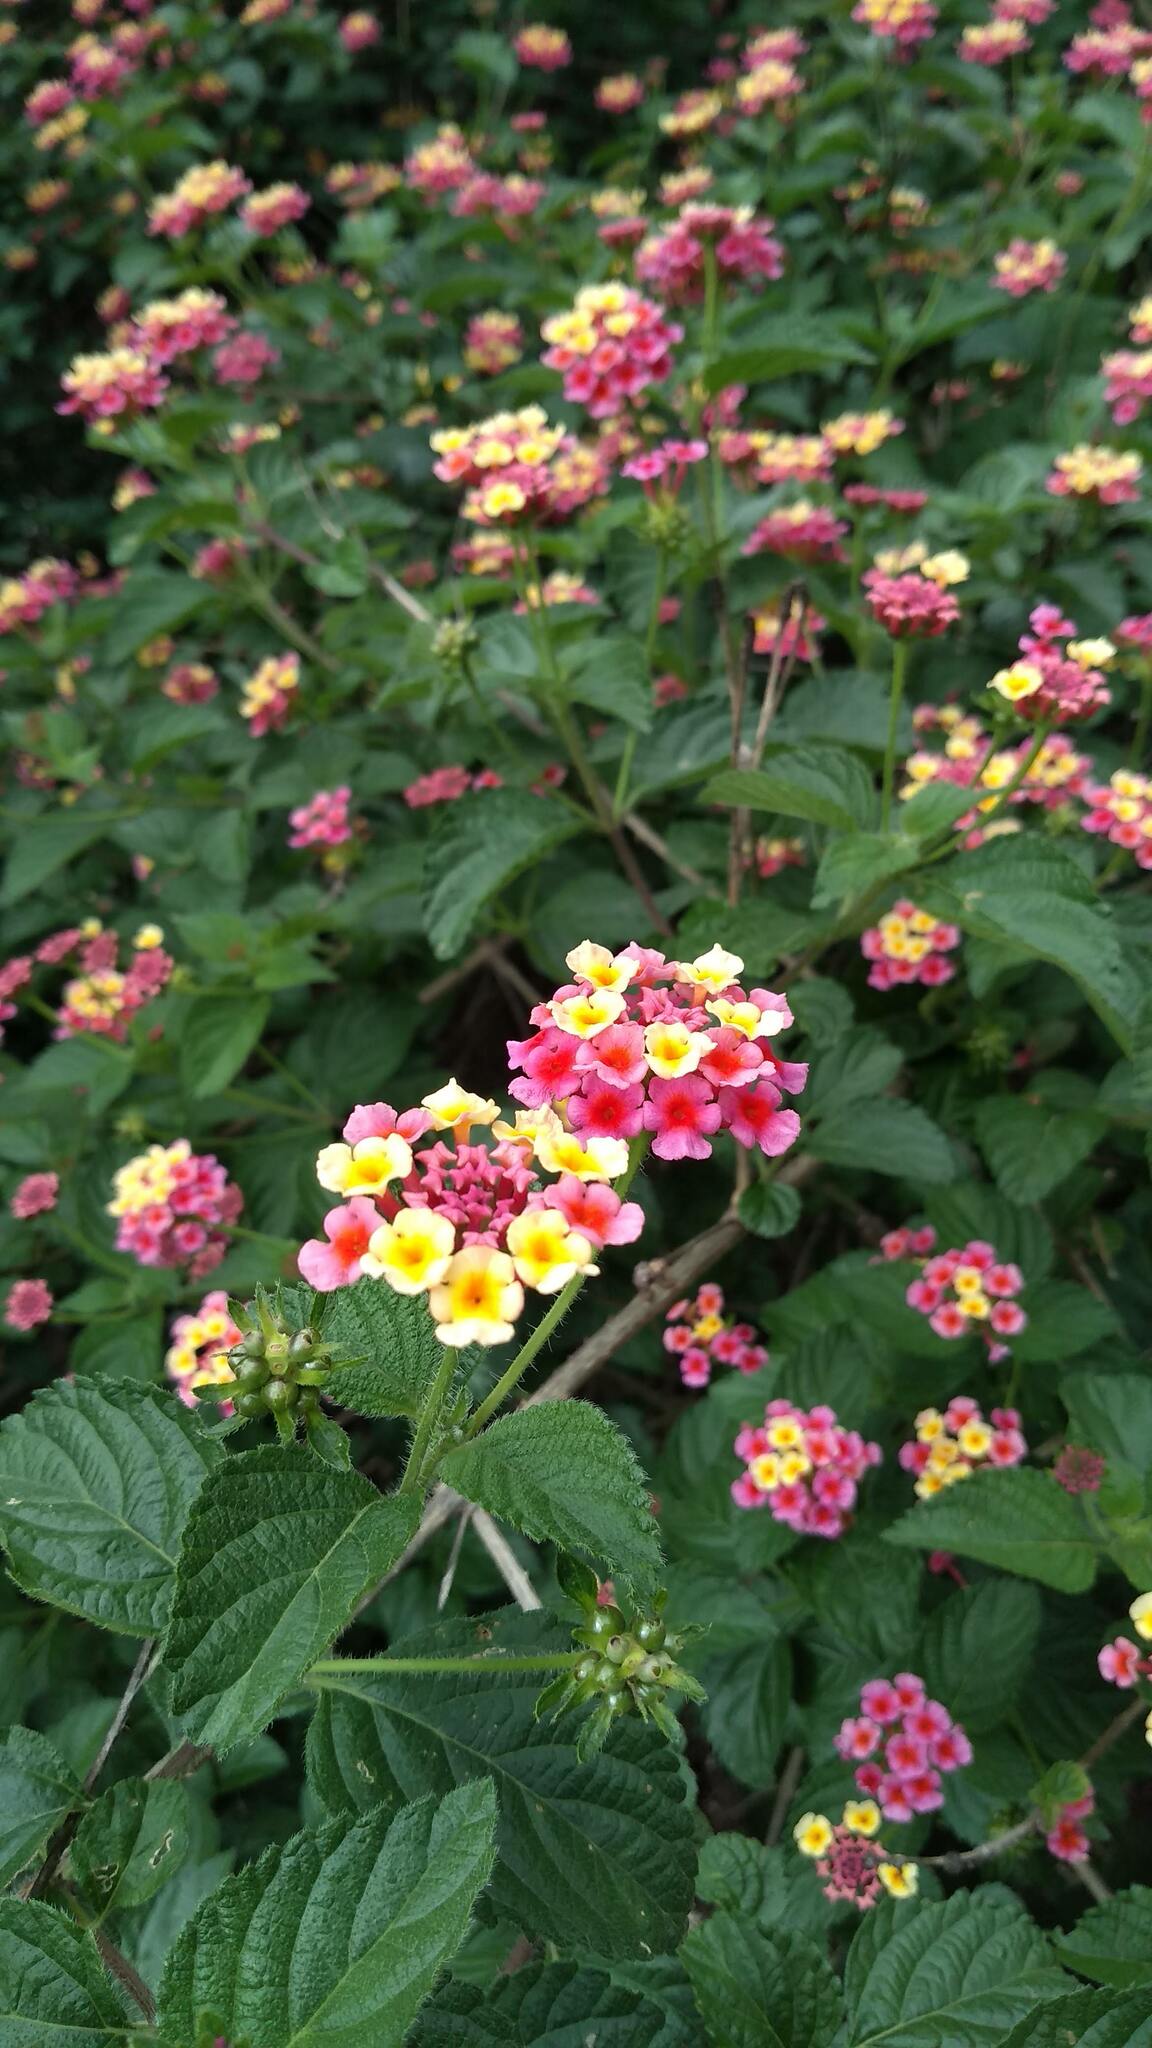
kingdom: Plantae
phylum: Tracheophyta
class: Magnoliopsida
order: Lamiales
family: Verbenaceae
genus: Lantana
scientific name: Lantana camara
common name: Lantana
